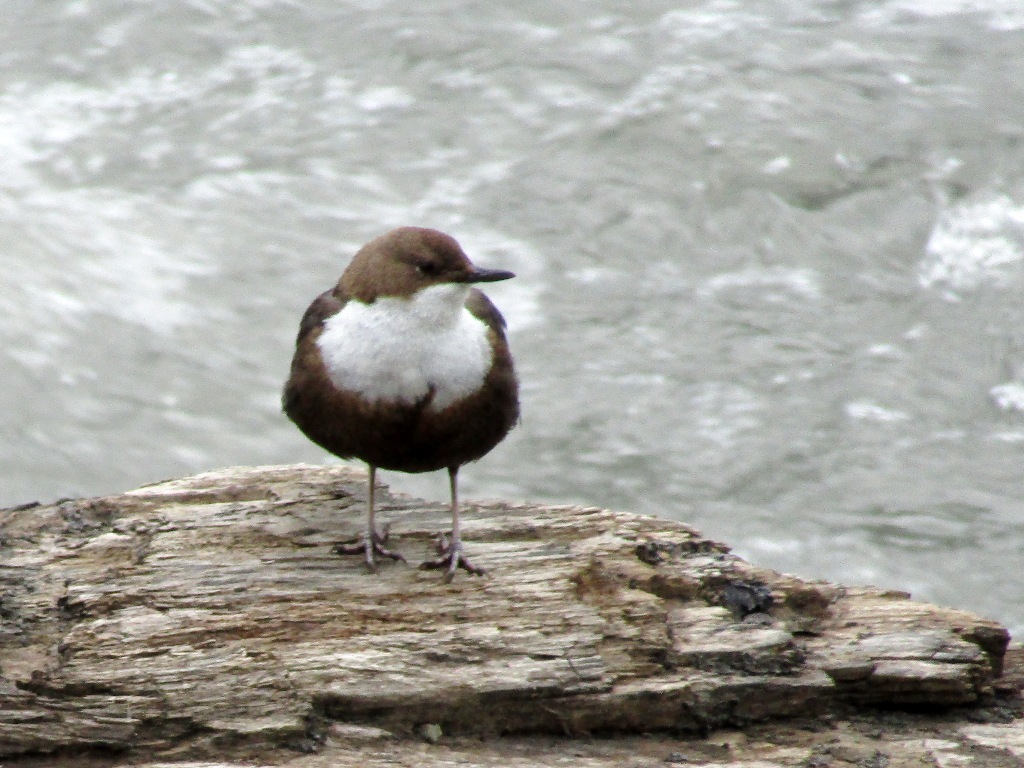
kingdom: Animalia
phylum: Chordata
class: Aves
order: Passeriformes
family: Cinclidae
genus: Cinclus
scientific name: Cinclus cinclus
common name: White-throated dipper
